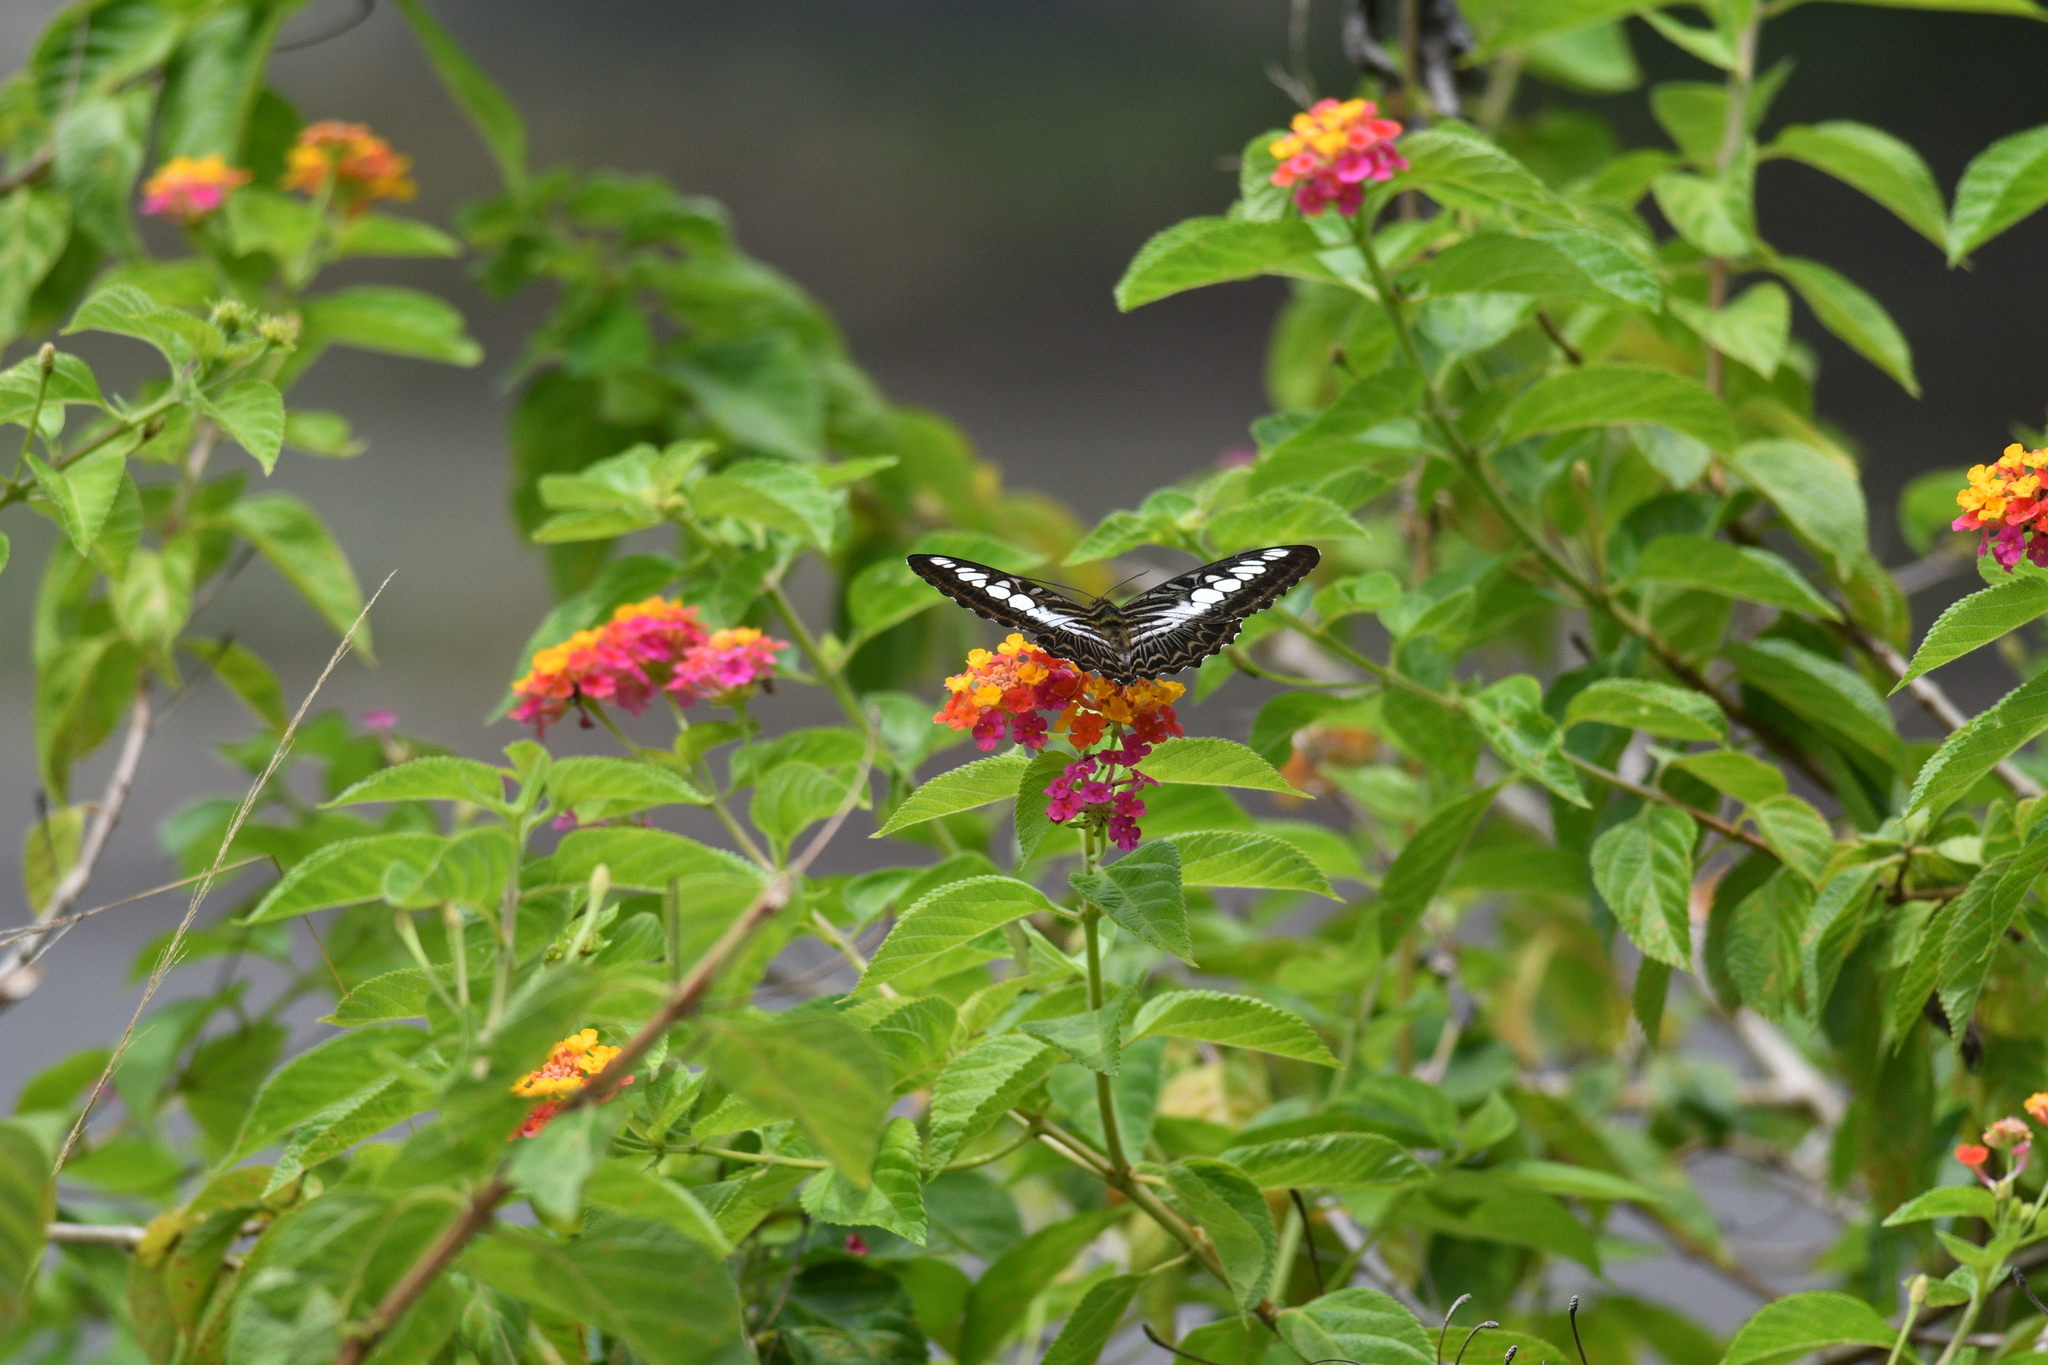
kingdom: Animalia
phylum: Arthropoda
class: Insecta
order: Lepidoptera
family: Nymphalidae
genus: Kallima
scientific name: Kallima sylvia
